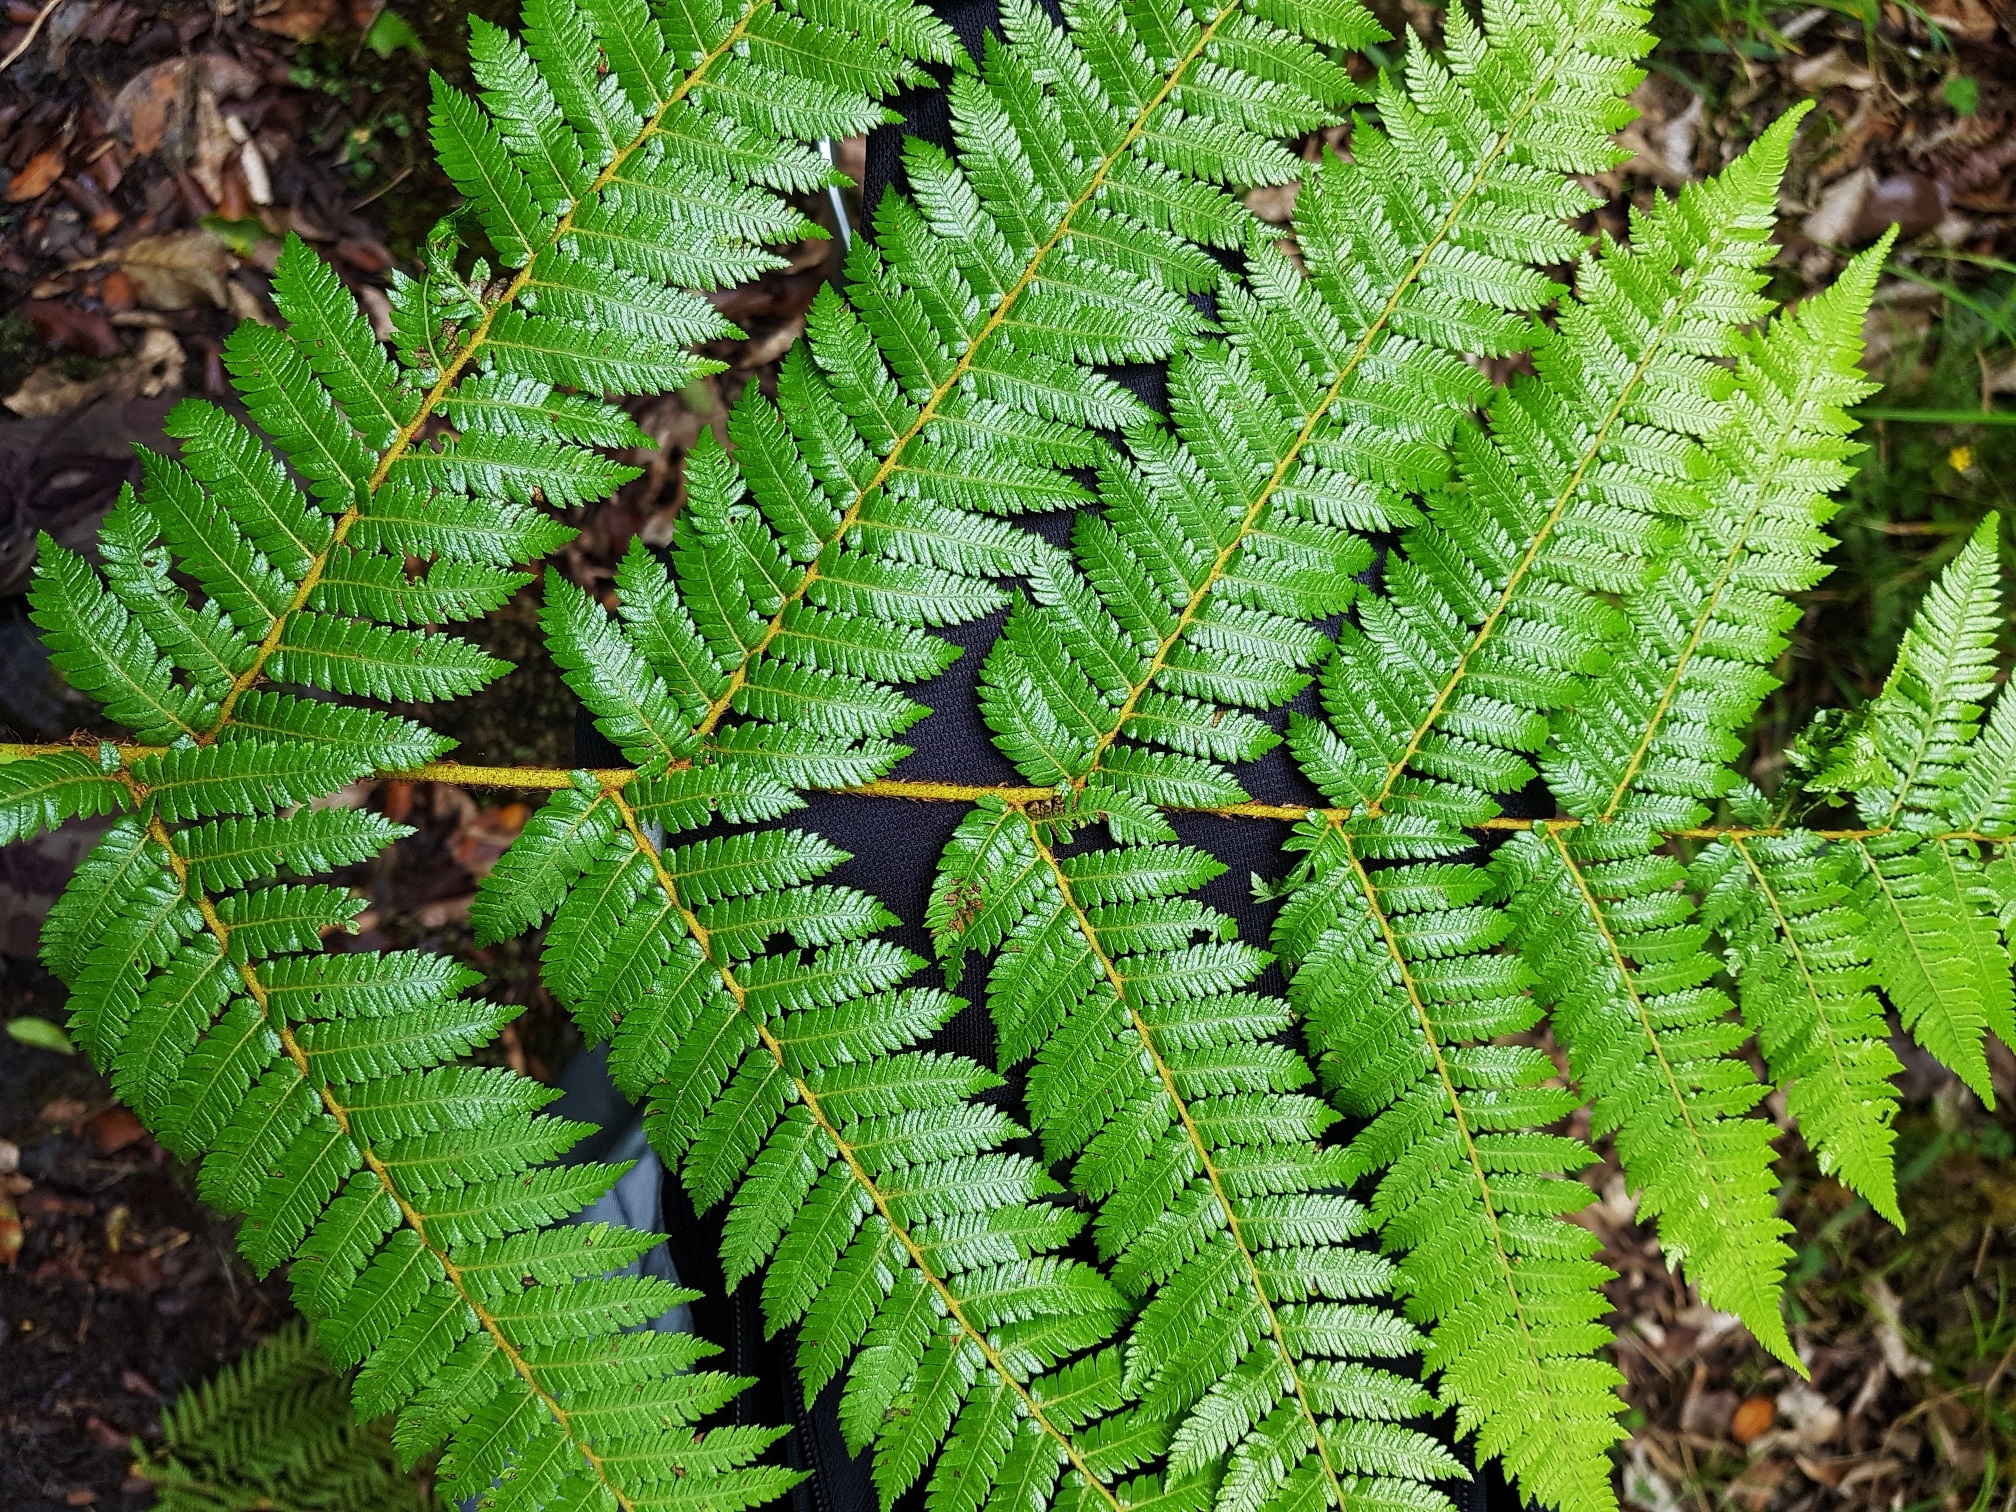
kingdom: Plantae
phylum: Tracheophyta
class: Polypodiopsida
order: Cyatheales
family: Cyatheaceae
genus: Alsophila
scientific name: Alsophila smithii
